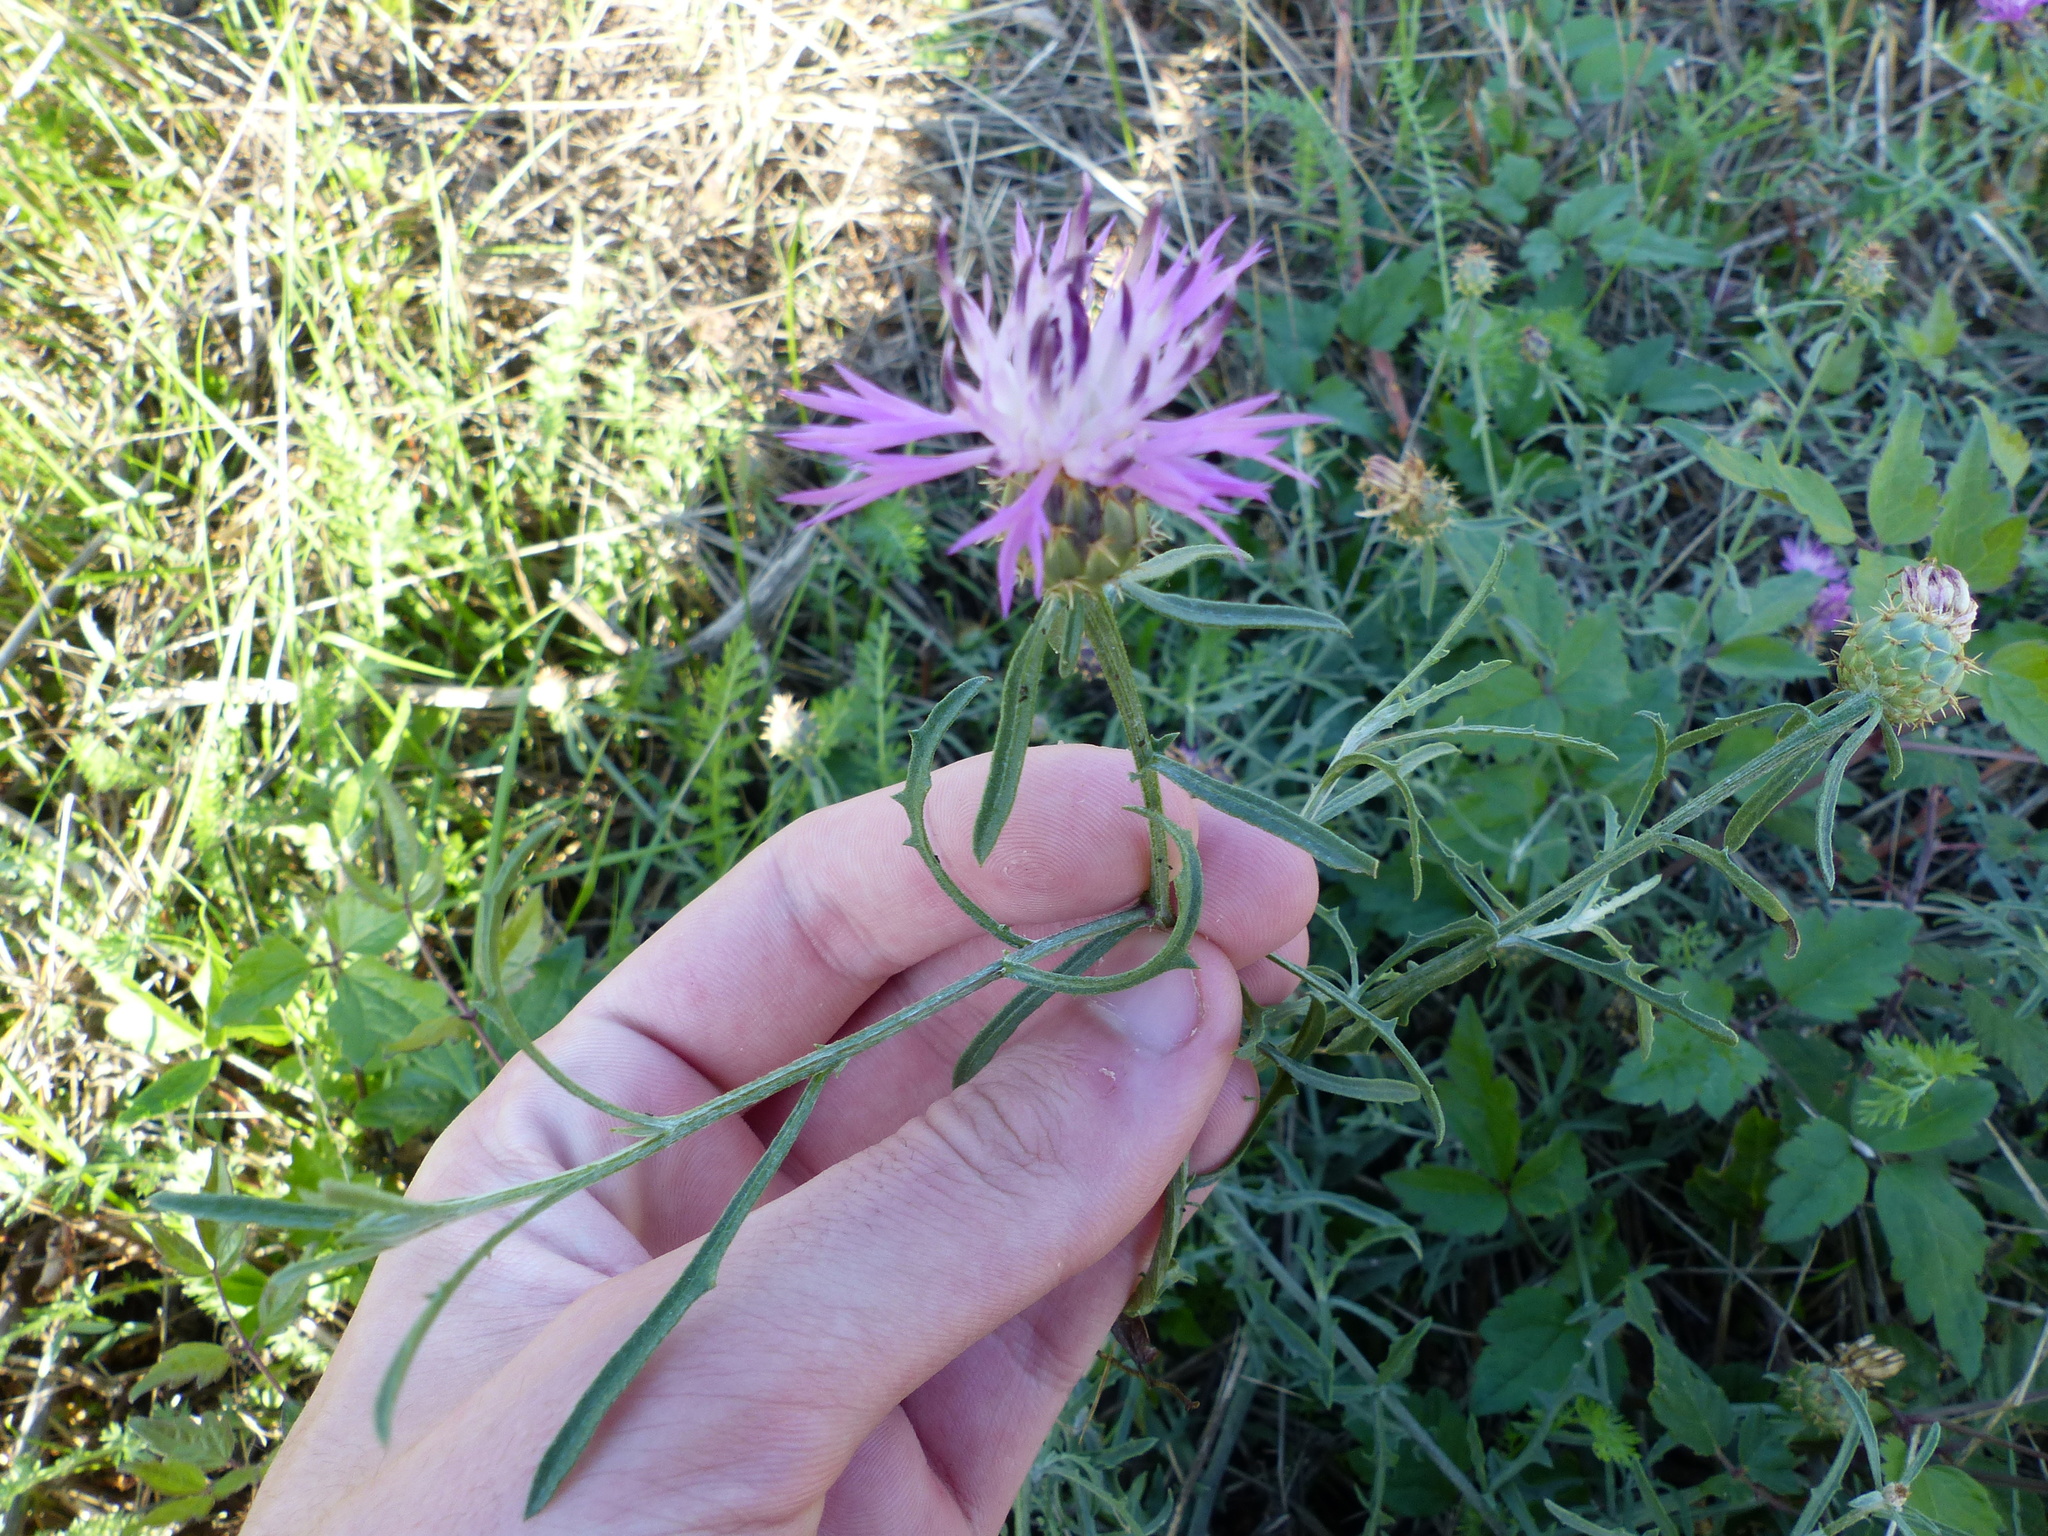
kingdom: Plantae
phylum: Tracheophyta
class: Magnoliopsida
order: Asterales
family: Asteraceae
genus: Centaurea
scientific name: Centaurea aspera
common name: Rough star-thistle
